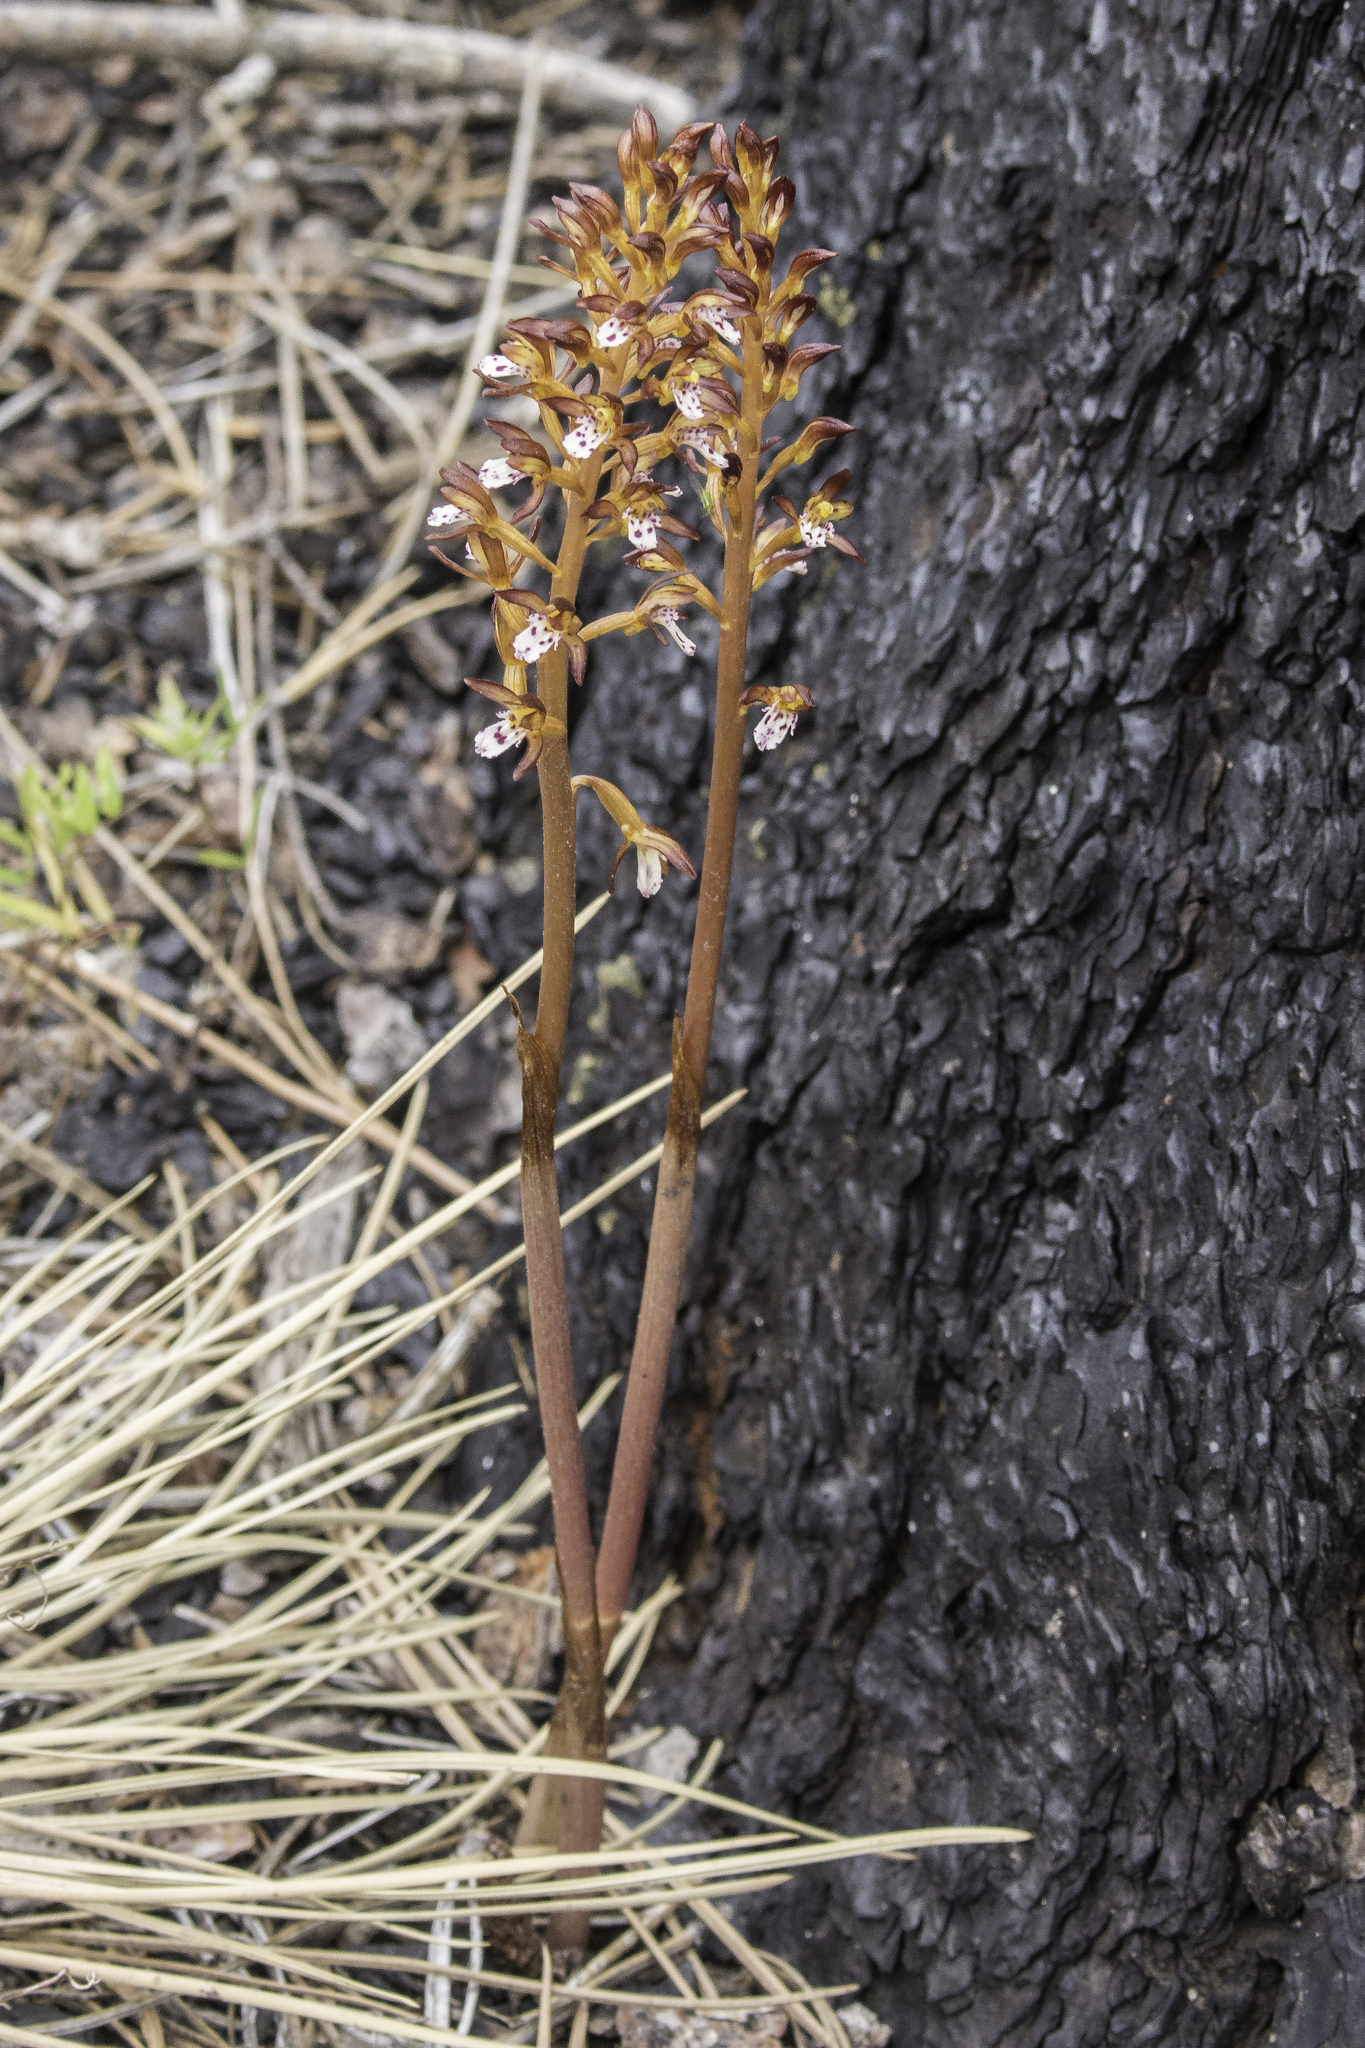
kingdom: Plantae
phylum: Tracheophyta
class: Liliopsida
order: Asparagales
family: Orchidaceae
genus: Corallorhiza
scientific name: Corallorhiza maculata
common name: Spotted coralroot
